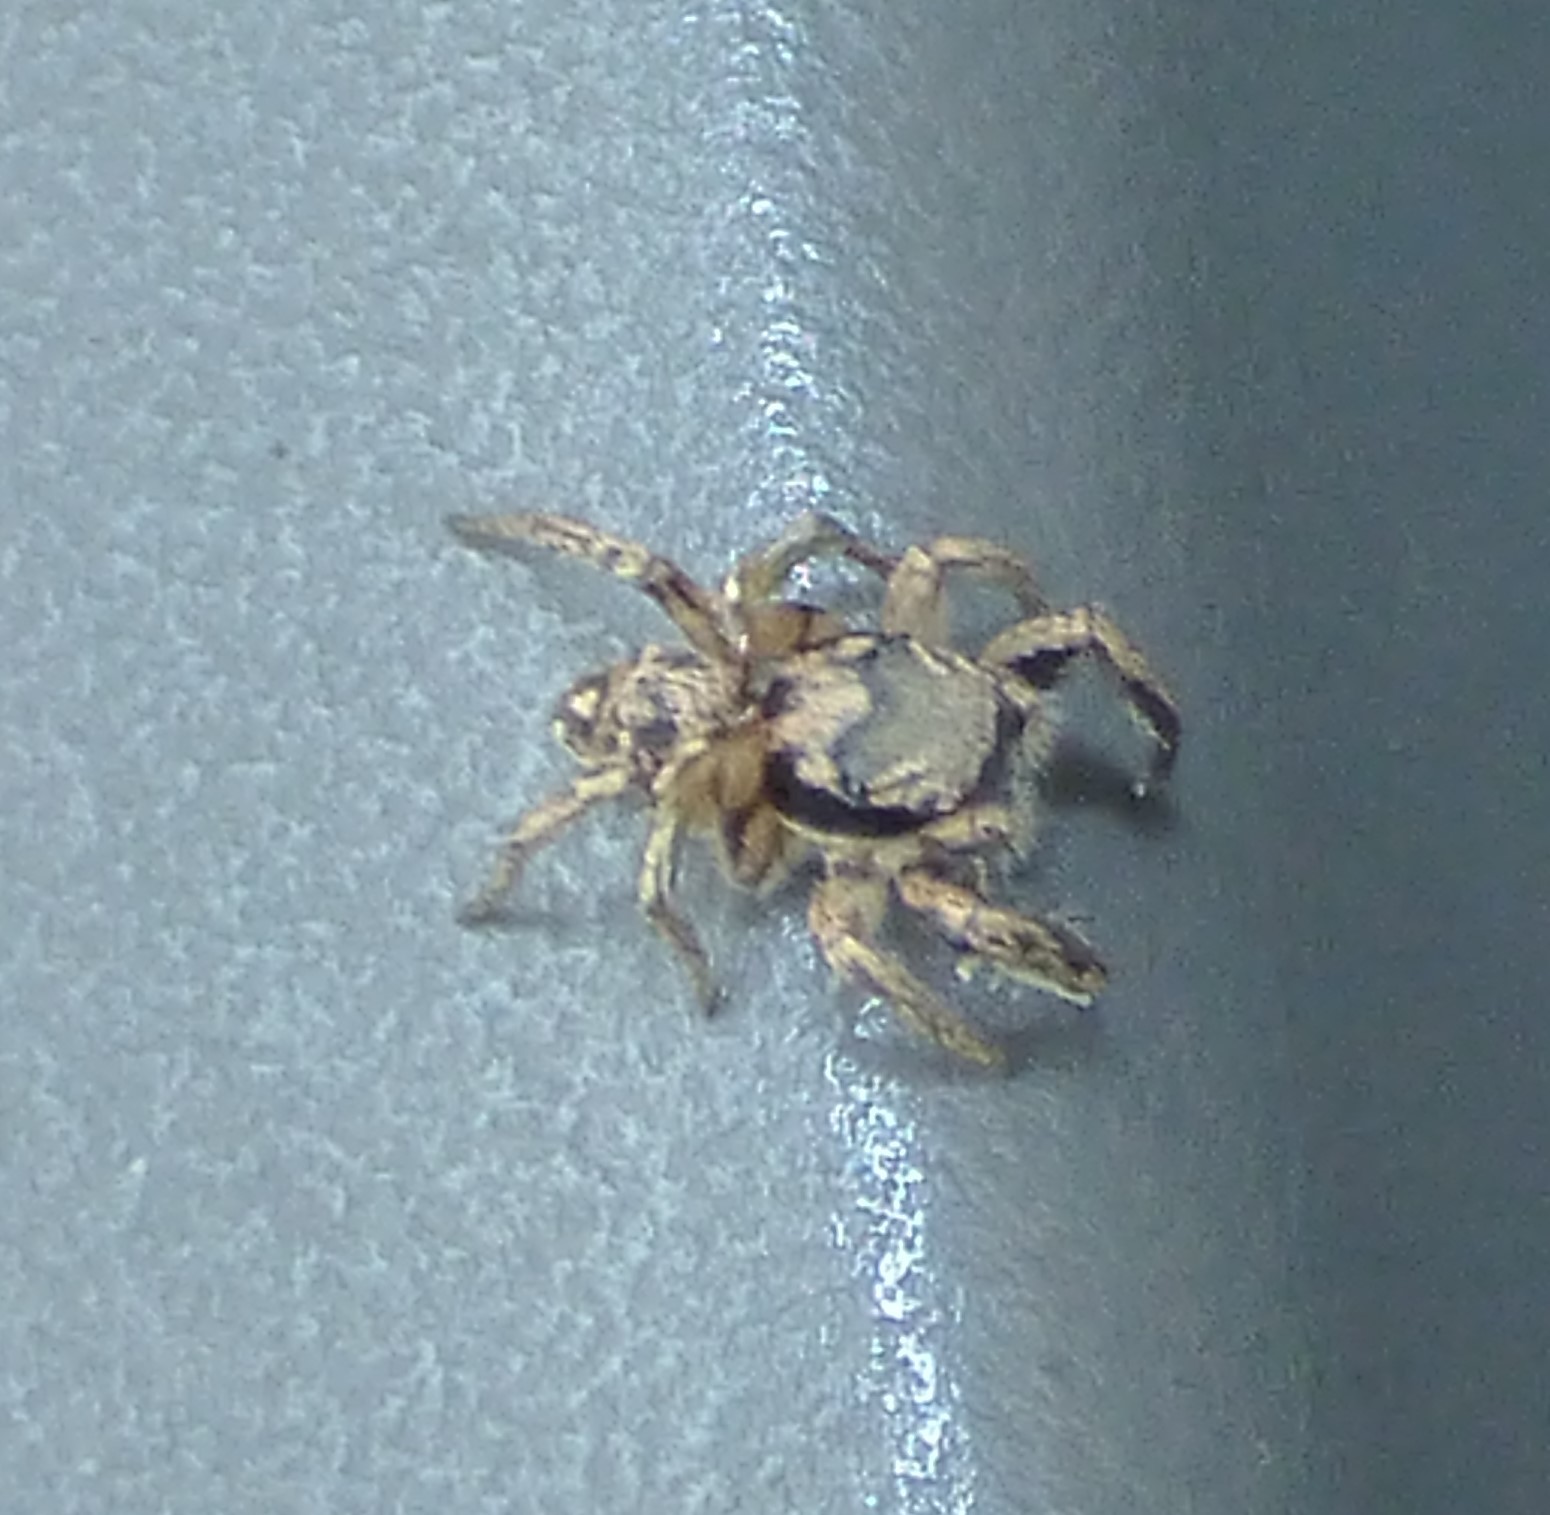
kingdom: Animalia
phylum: Arthropoda
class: Arachnida
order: Araneae
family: Salticidae
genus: Habronattus
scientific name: Habronattus coecatus
